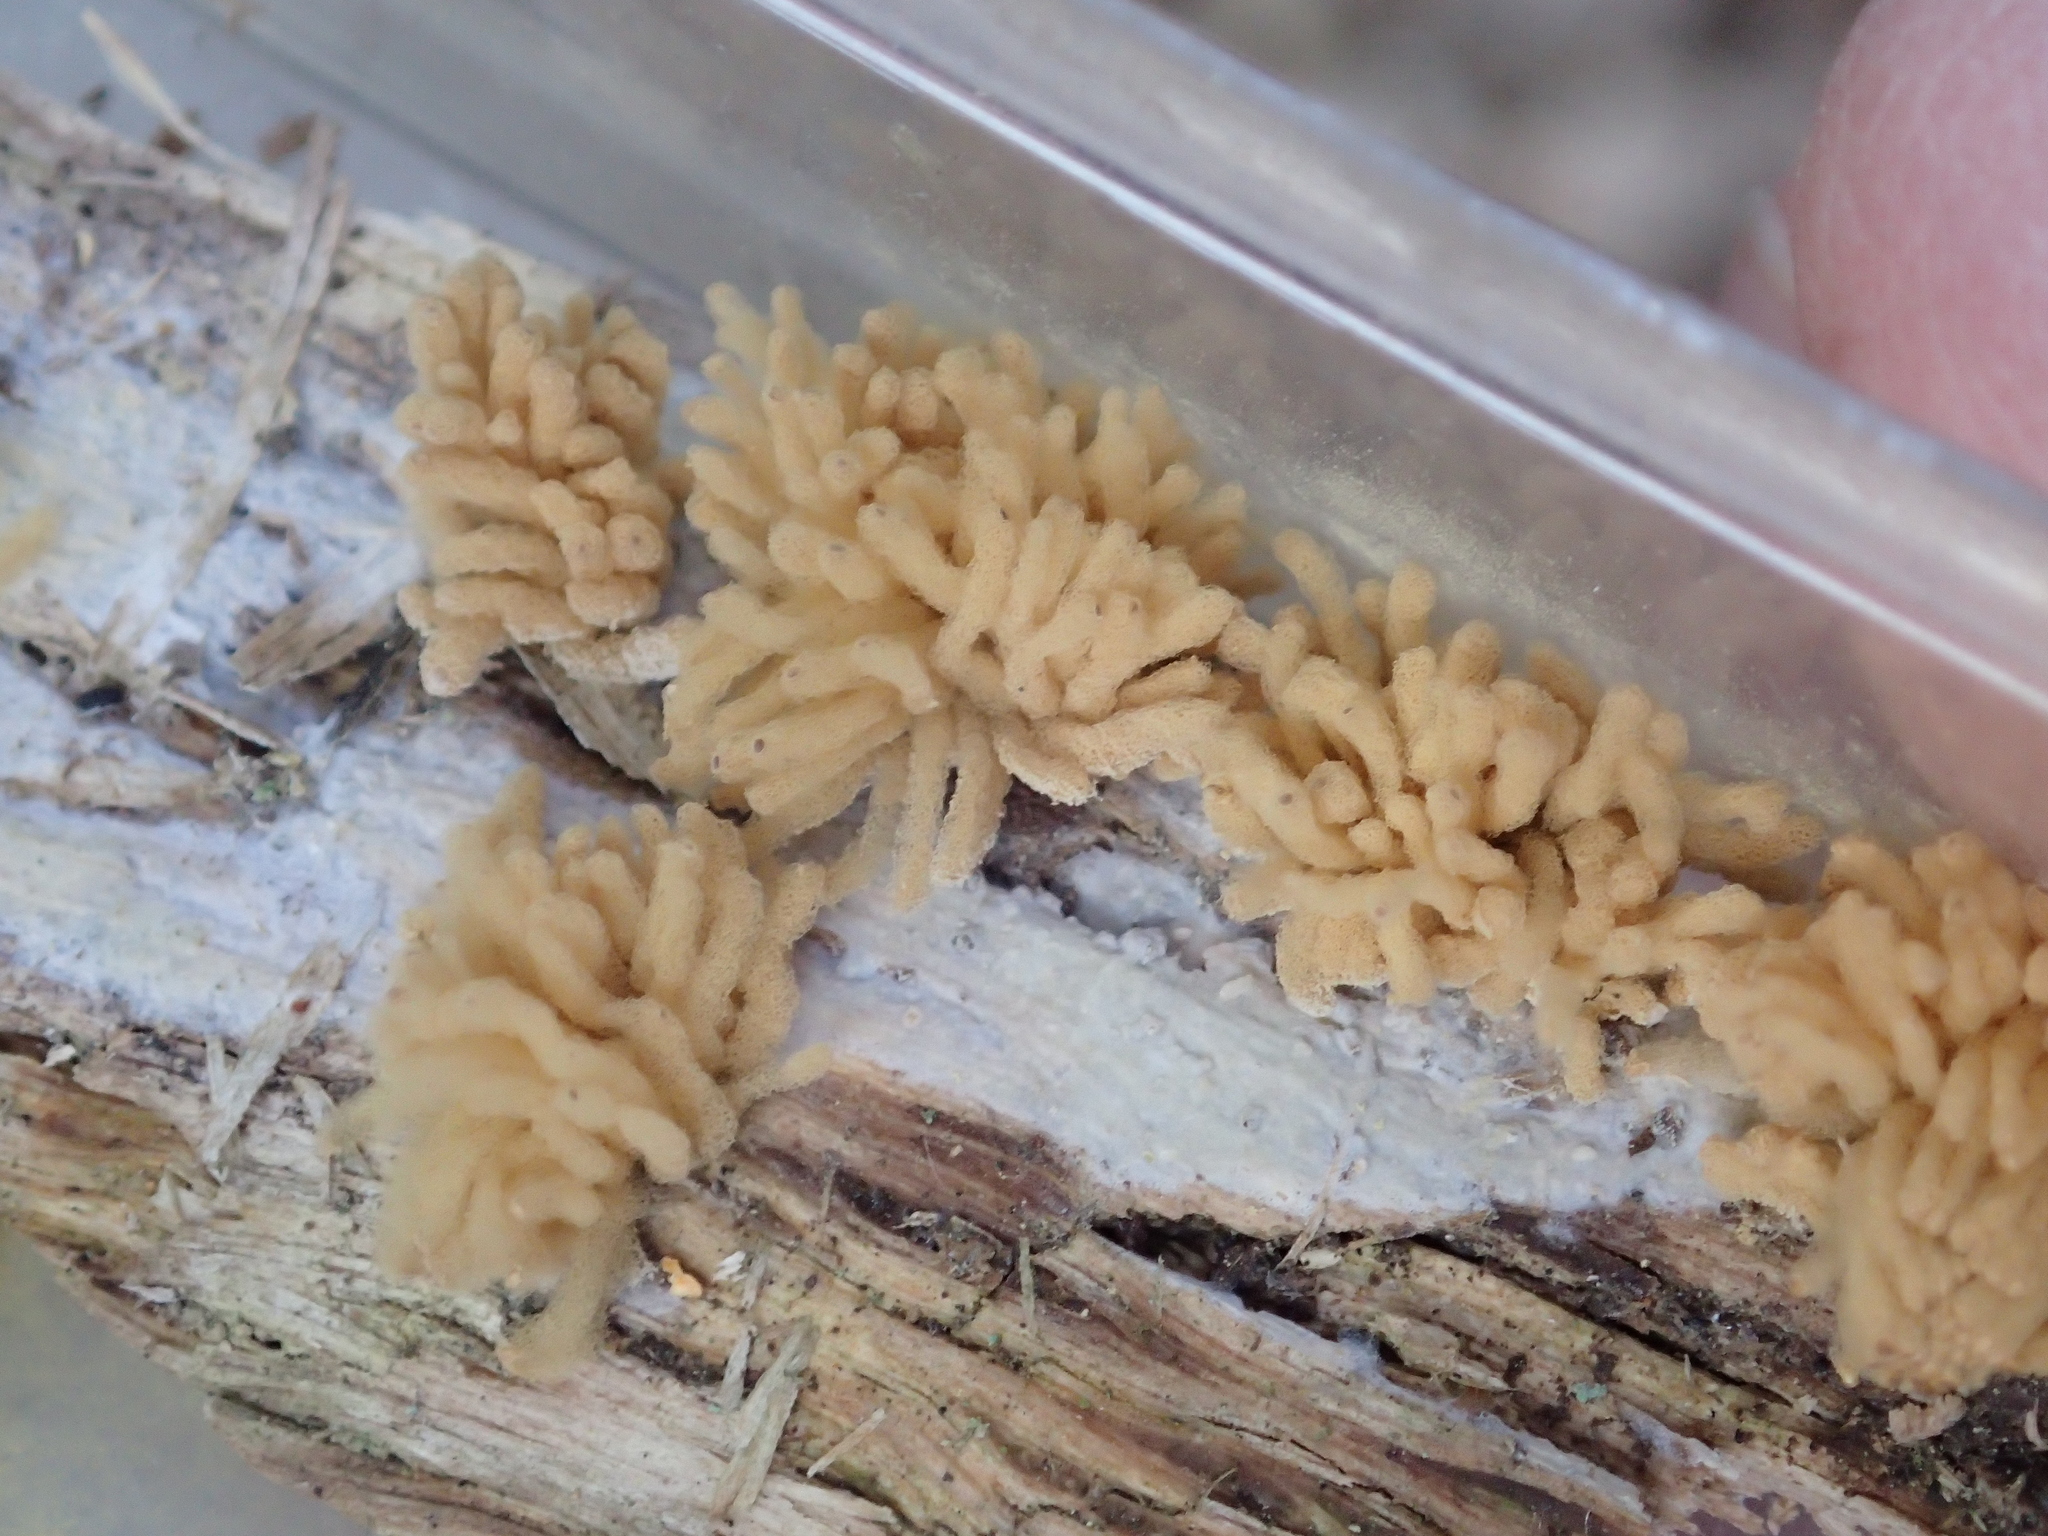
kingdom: Protozoa
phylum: Mycetozoa
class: Myxomycetes
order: Trichiales
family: Arcyriaceae
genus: Arcyria
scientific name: Arcyria obvelata
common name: Yellow carnival candy slime
